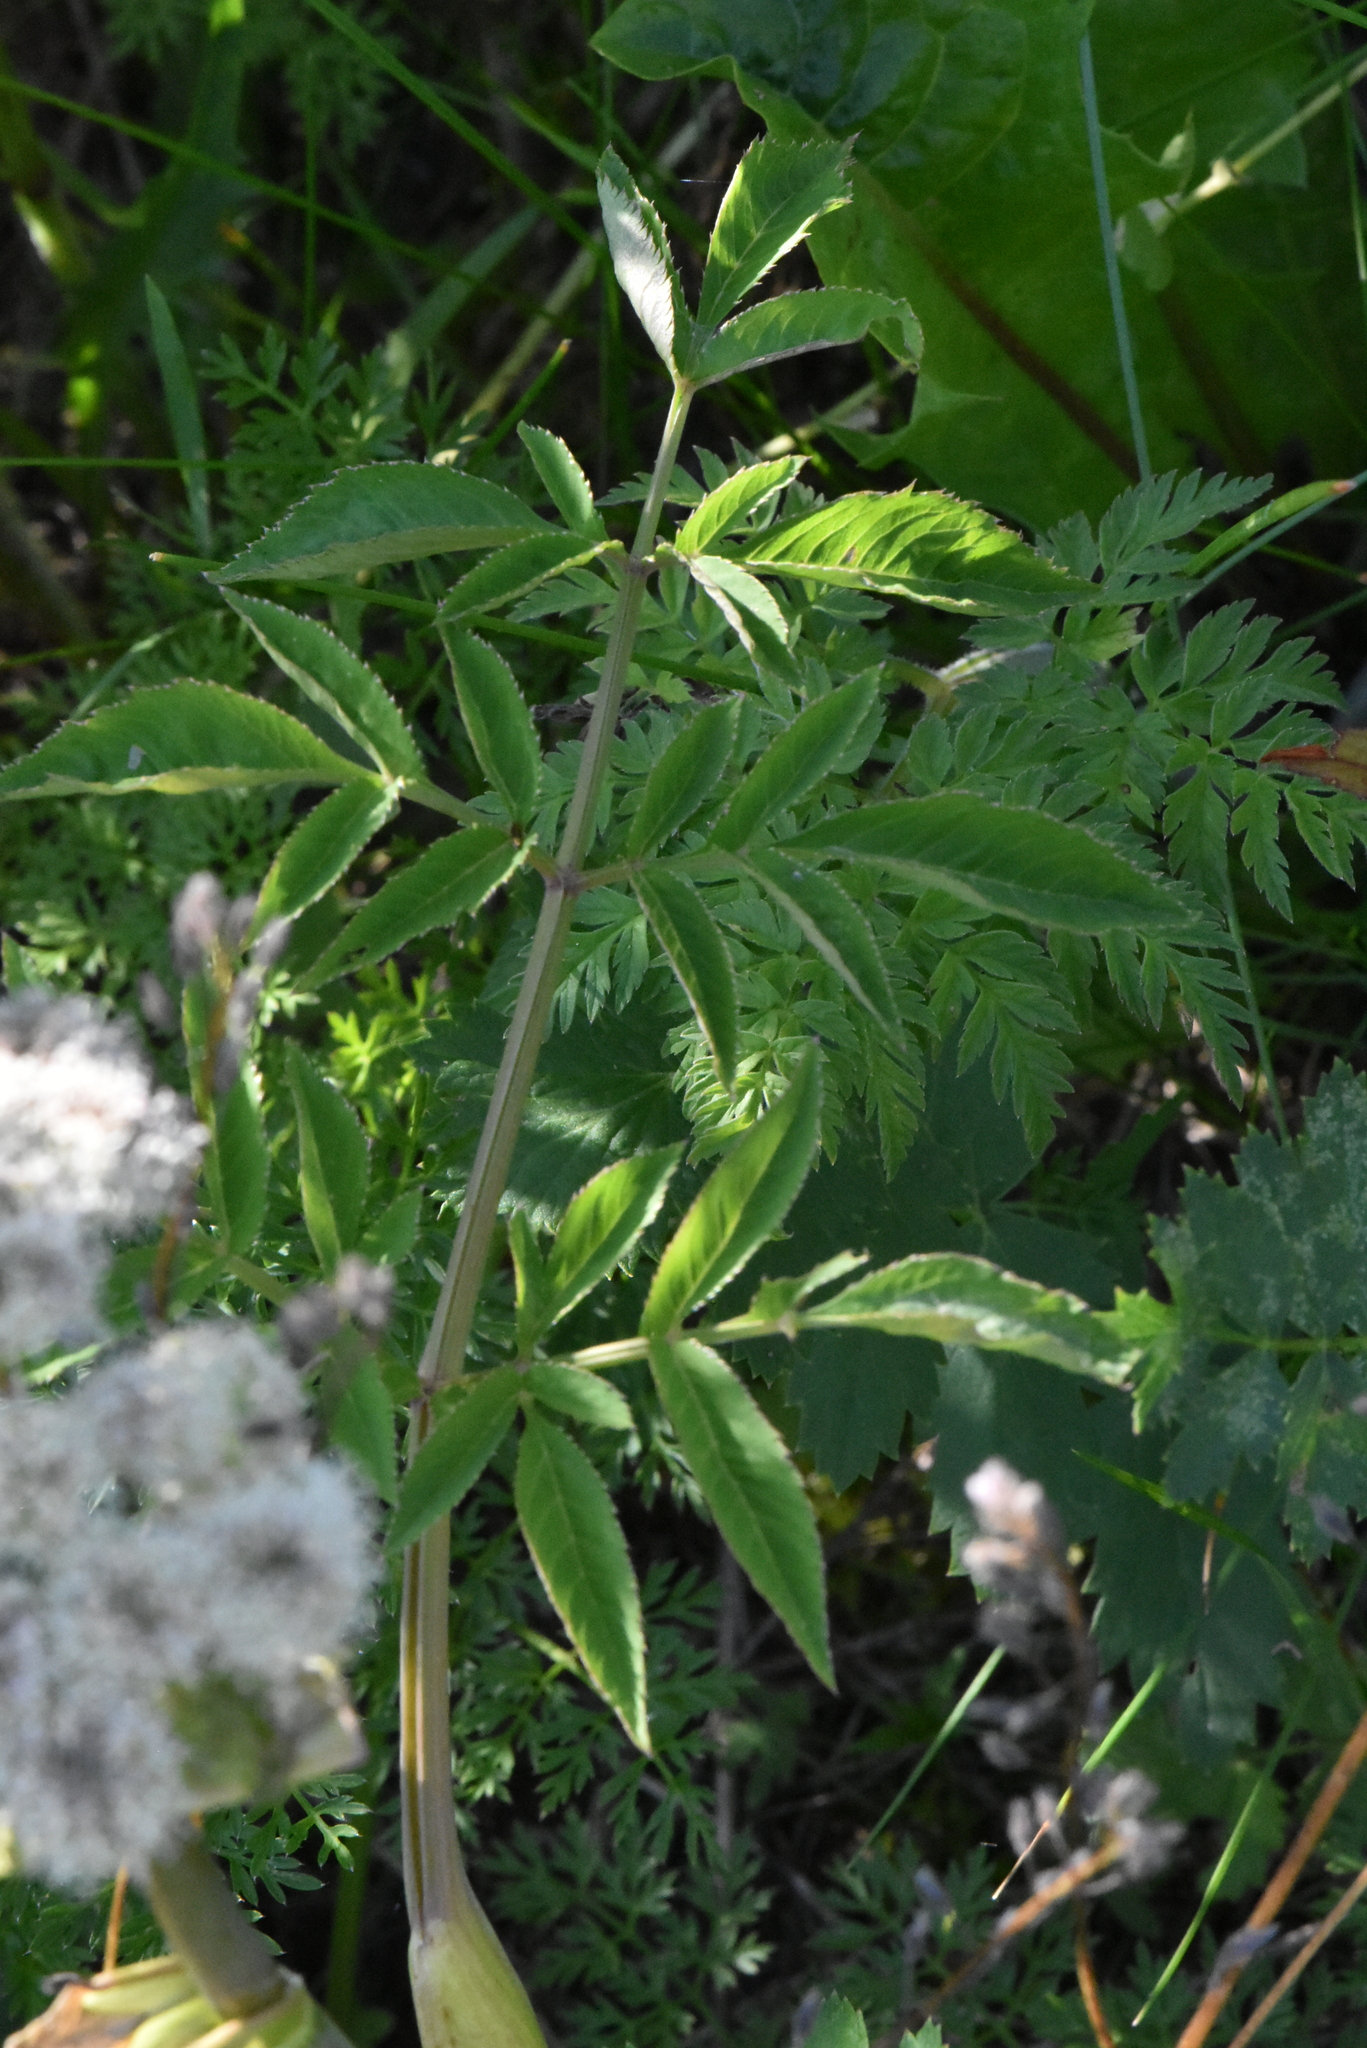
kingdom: Plantae
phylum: Tracheophyta
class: Magnoliopsida
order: Apiales
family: Apiaceae
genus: Angelica
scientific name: Angelica sylvestris
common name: Wild angelica
